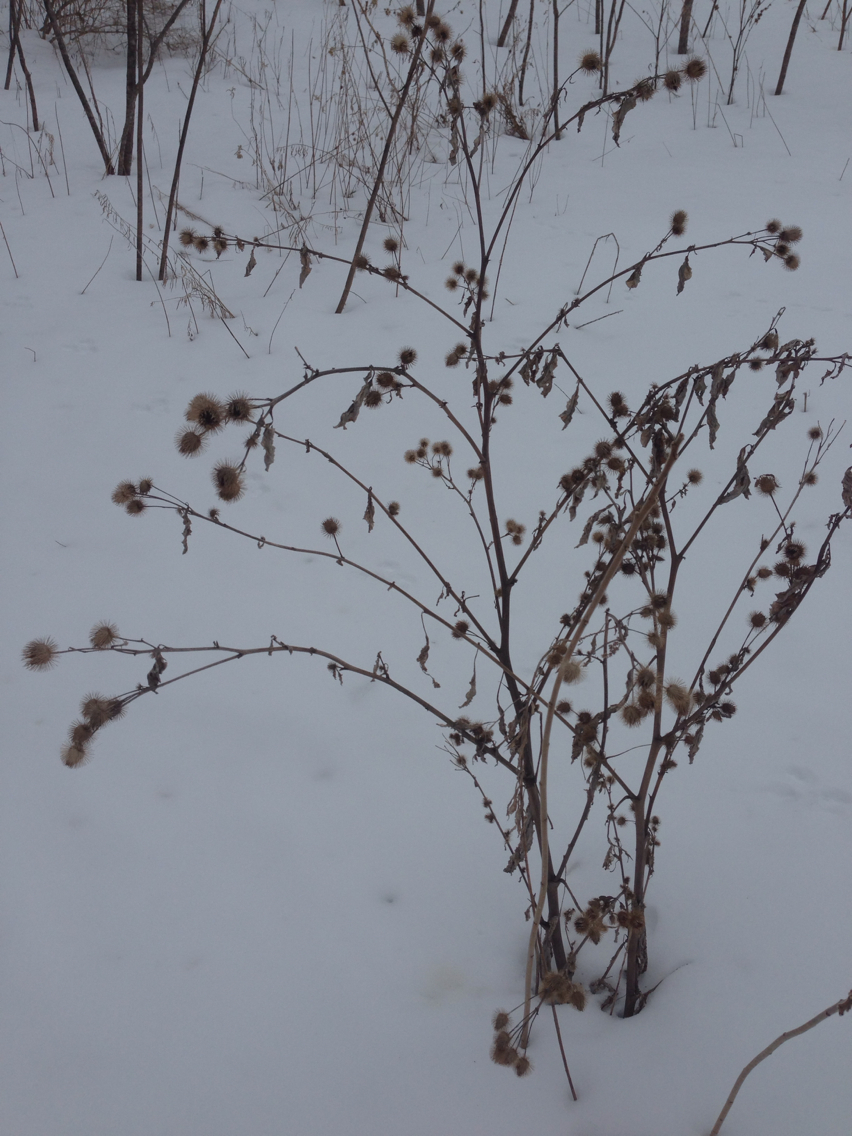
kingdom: Plantae
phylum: Tracheophyta
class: Magnoliopsida
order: Asterales
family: Asteraceae
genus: Arctium
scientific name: Arctium lappa
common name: Greater burdock
